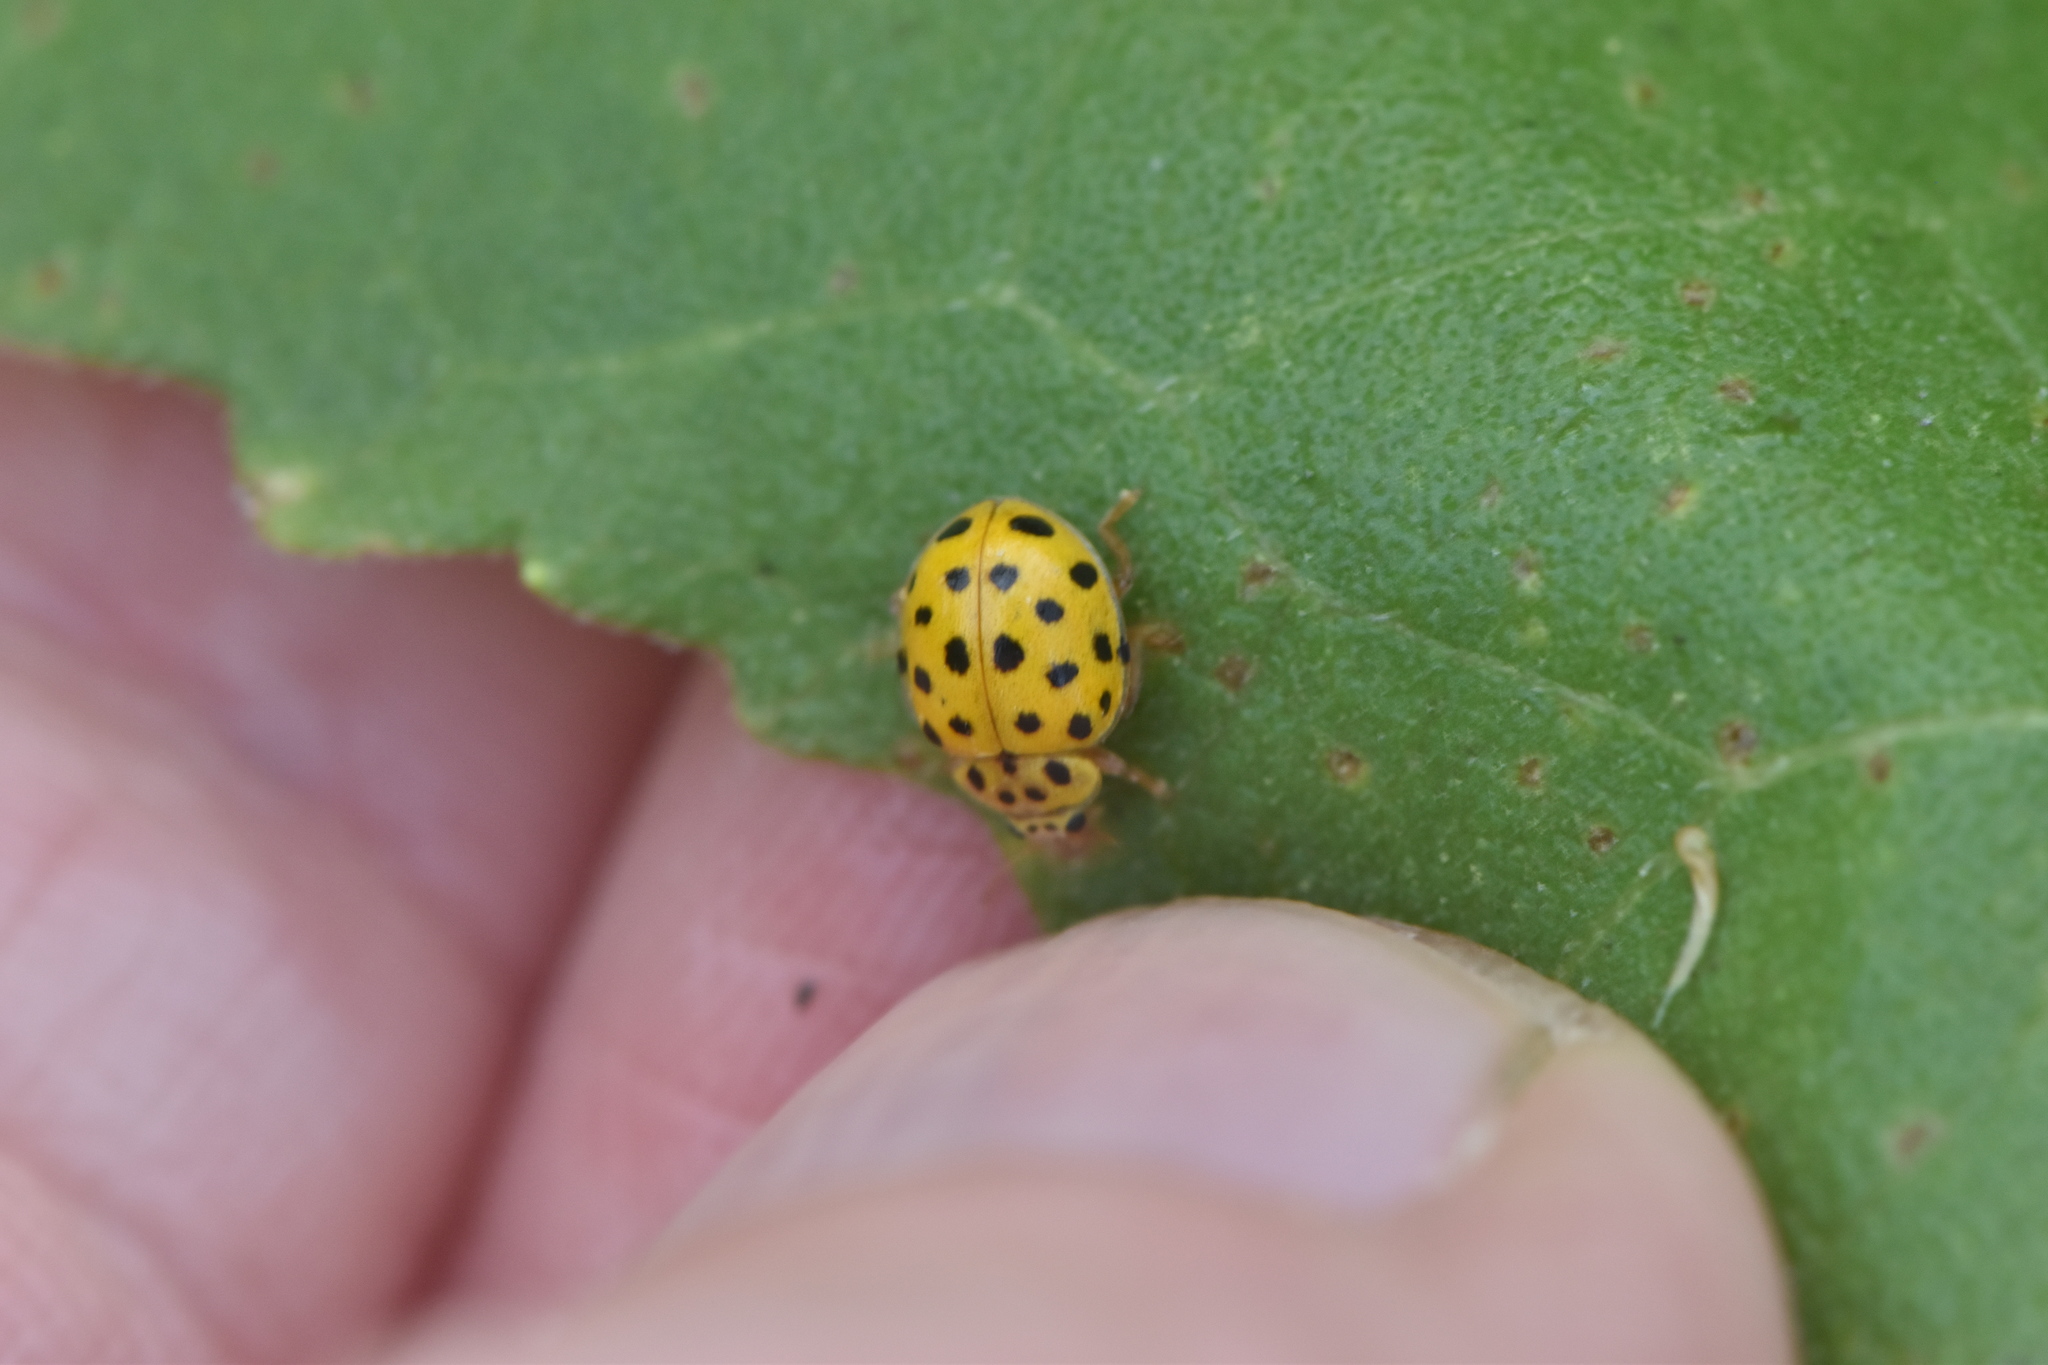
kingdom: Animalia
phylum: Arthropoda
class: Insecta
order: Coleoptera
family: Coccinellidae
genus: Psyllobora
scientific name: Psyllobora vigintiduopunctata
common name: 22-spot ladybird
